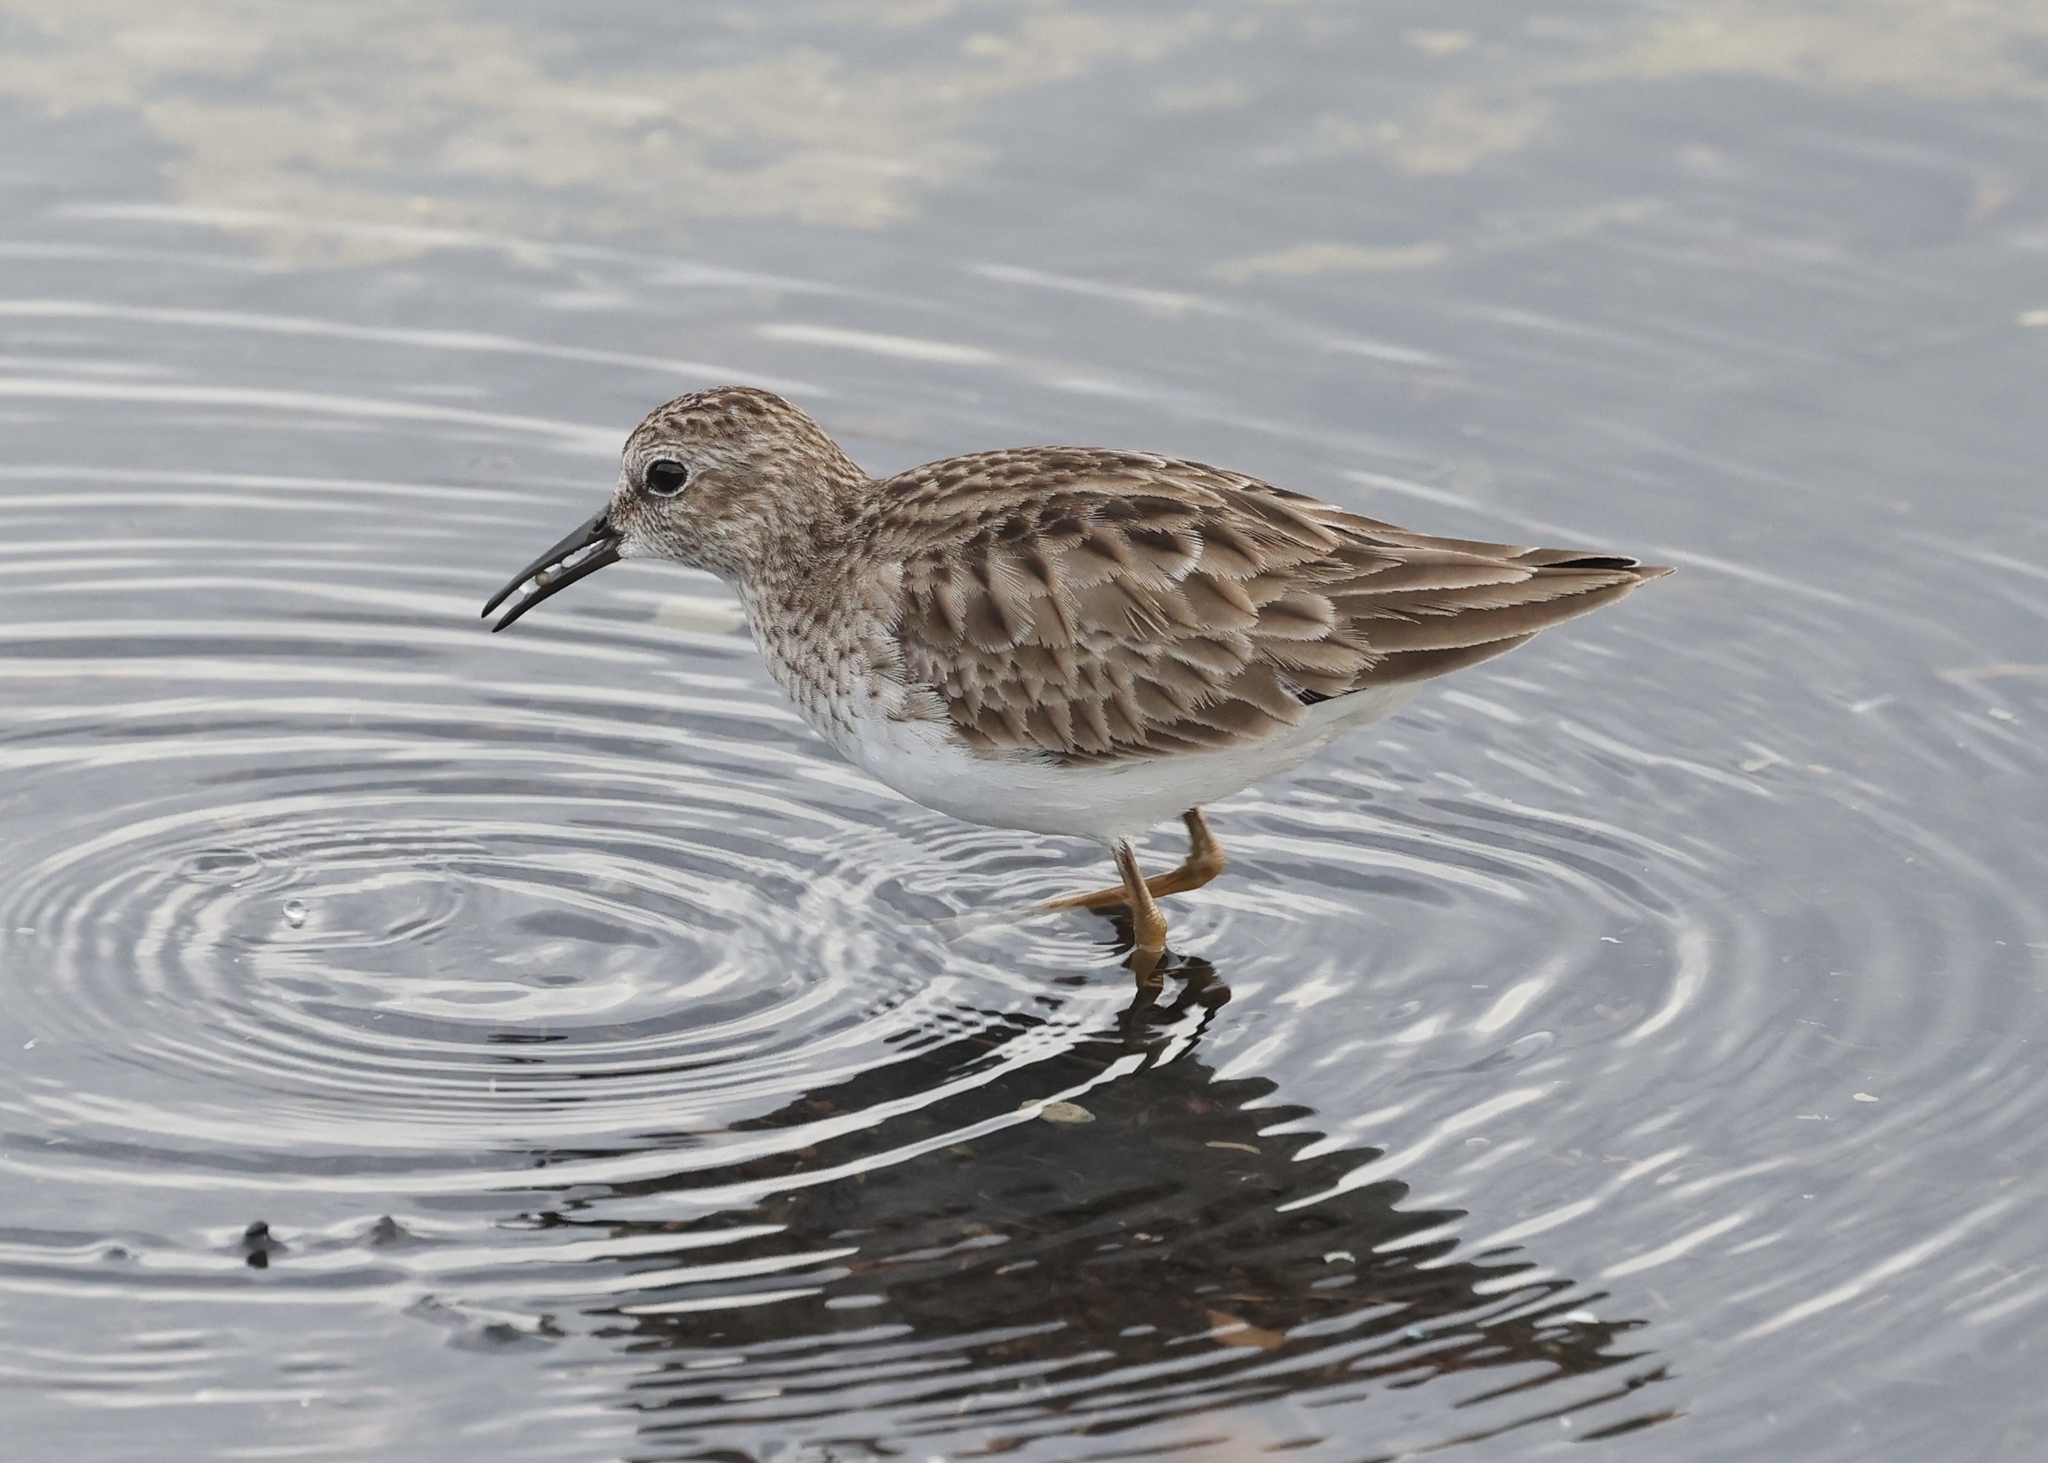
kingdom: Animalia
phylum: Chordata
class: Aves
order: Charadriiformes
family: Scolopacidae
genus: Calidris
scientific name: Calidris minutilla
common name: Least sandpiper
